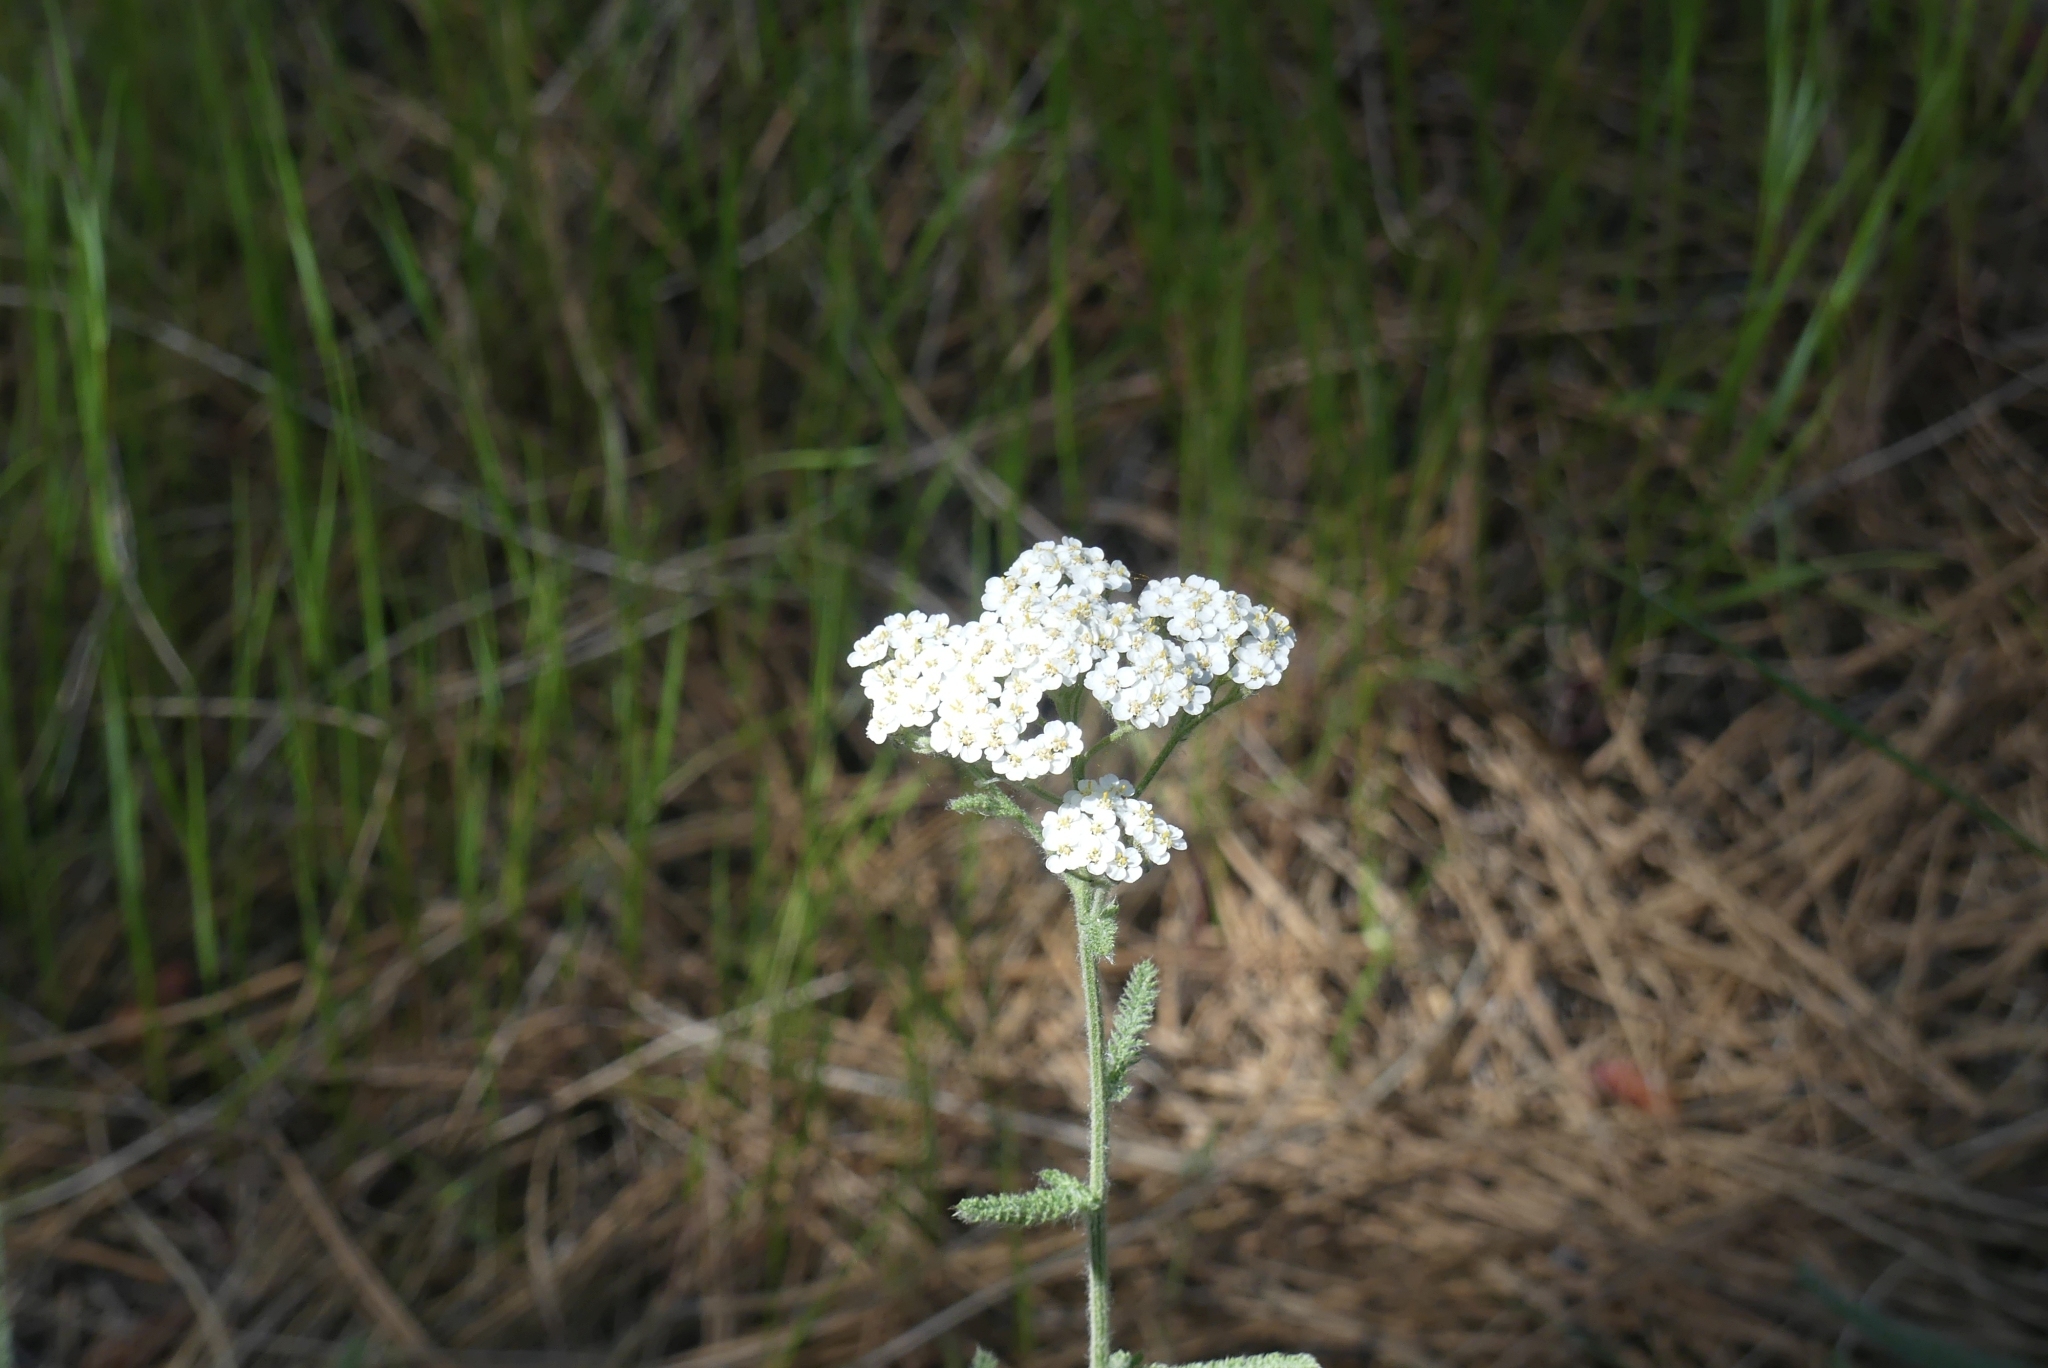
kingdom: Plantae
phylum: Tracheophyta
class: Magnoliopsida
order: Asterales
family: Asteraceae
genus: Achillea
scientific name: Achillea millefolium
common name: Yarrow
